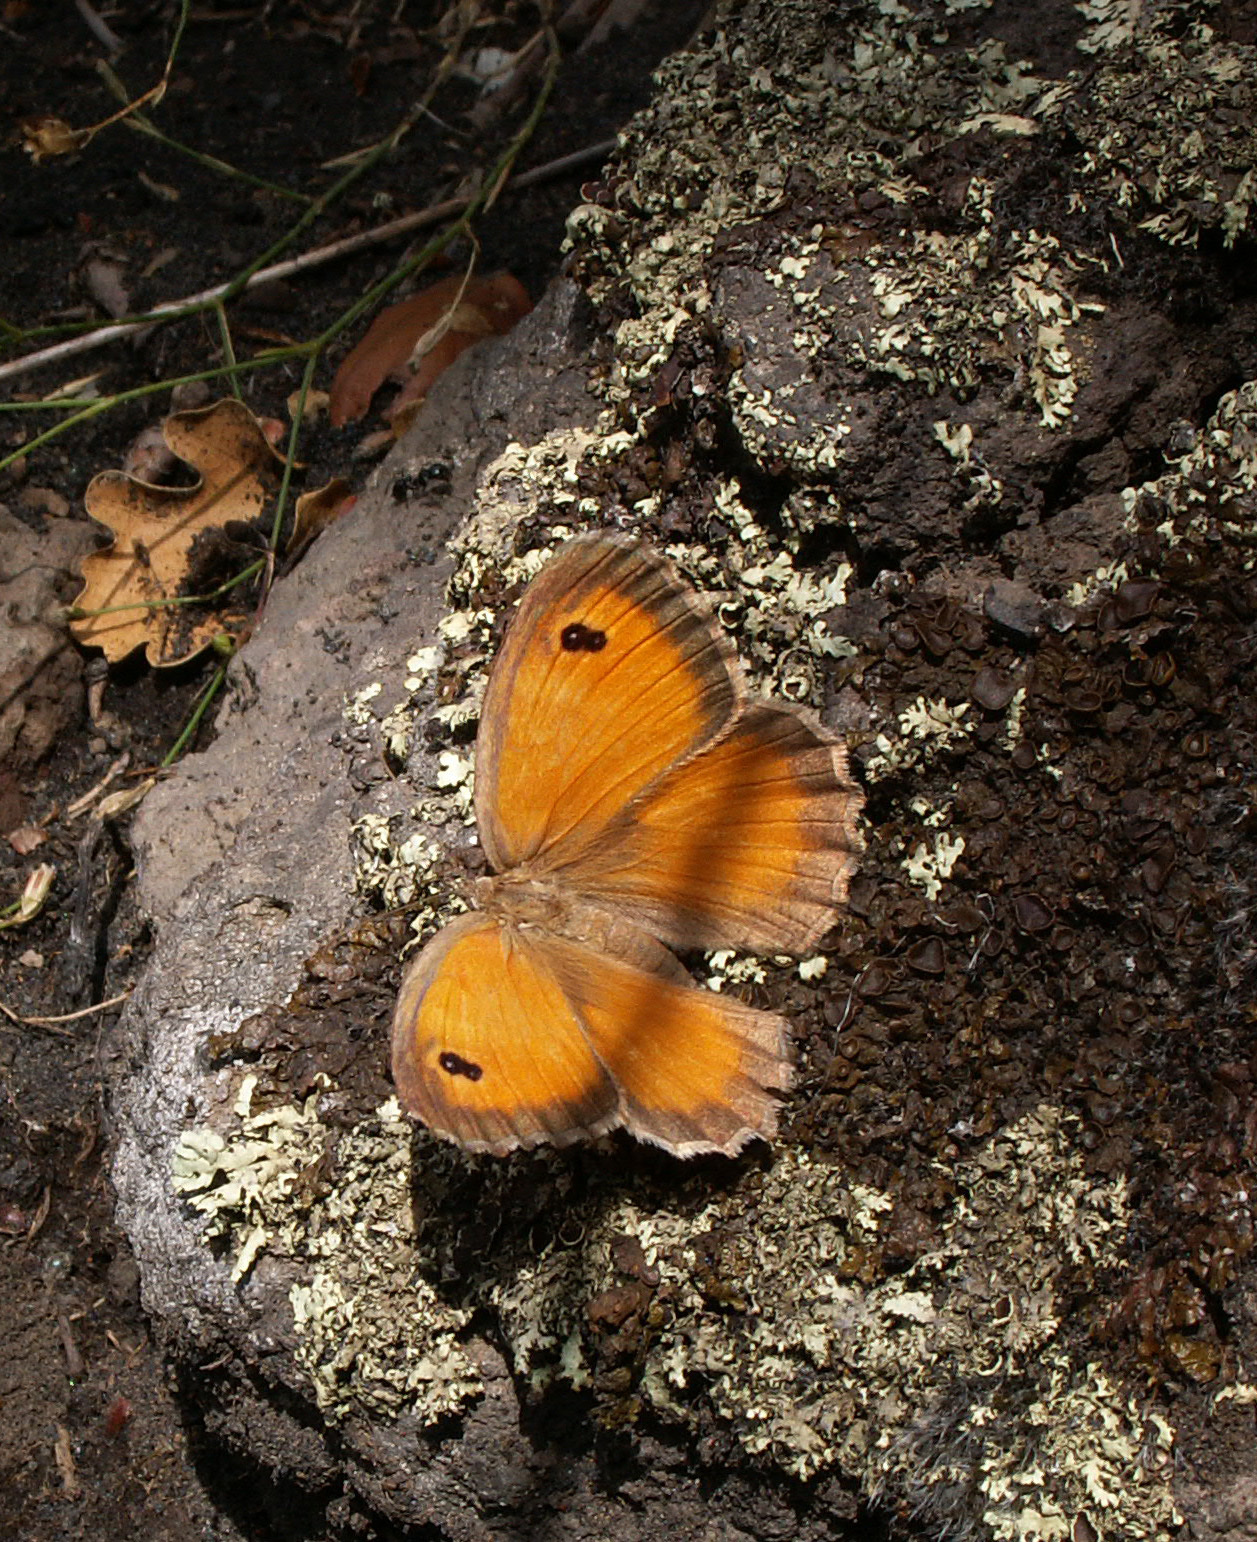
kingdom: Animalia
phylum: Arthropoda
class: Insecta
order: Lepidoptera
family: Nymphalidae
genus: Pyronia
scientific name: Pyronia cecilia
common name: Southern gatekeeper
